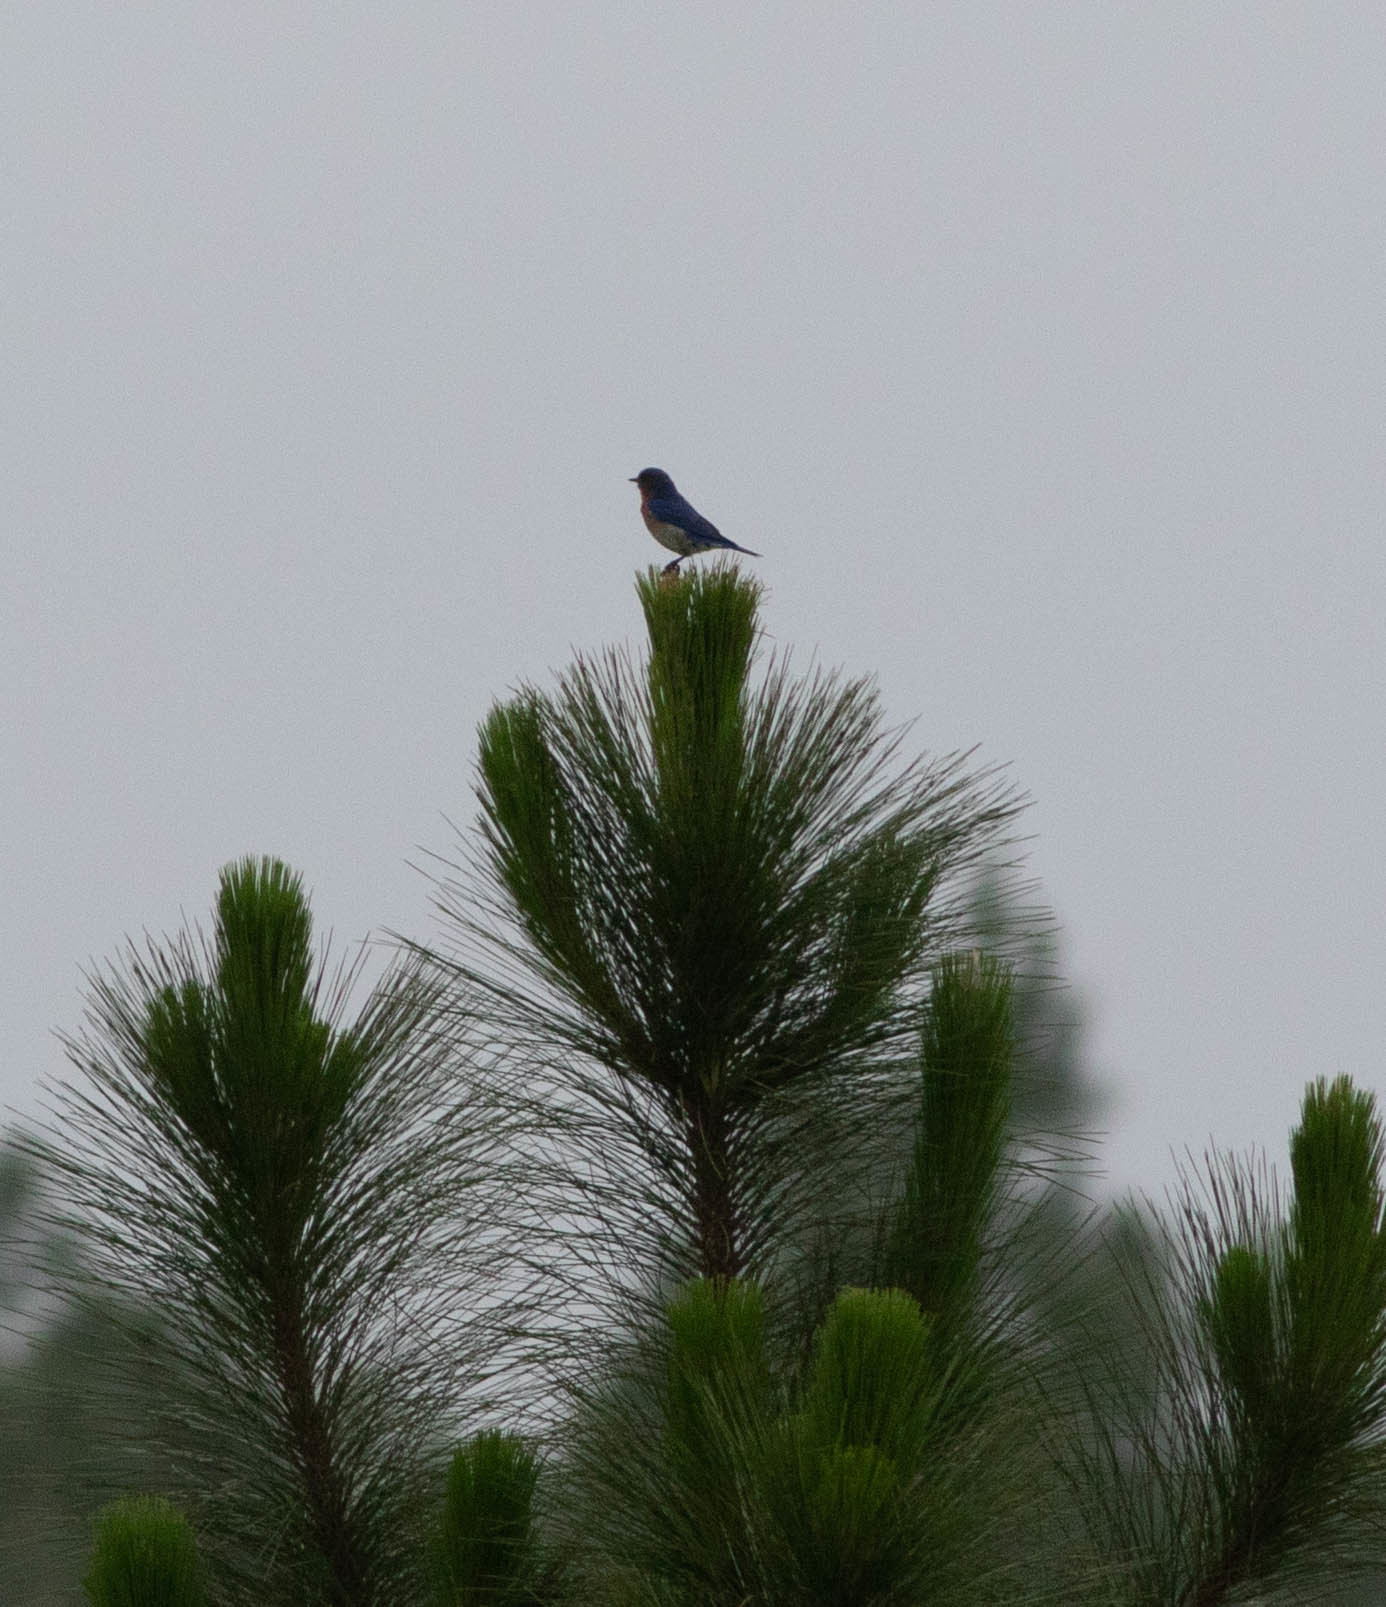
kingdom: Animalia
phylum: Chordata
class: Aves
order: Passeriformes
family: Turdidae
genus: Sialia
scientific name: Sialia sialis
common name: Eastern bluebird
